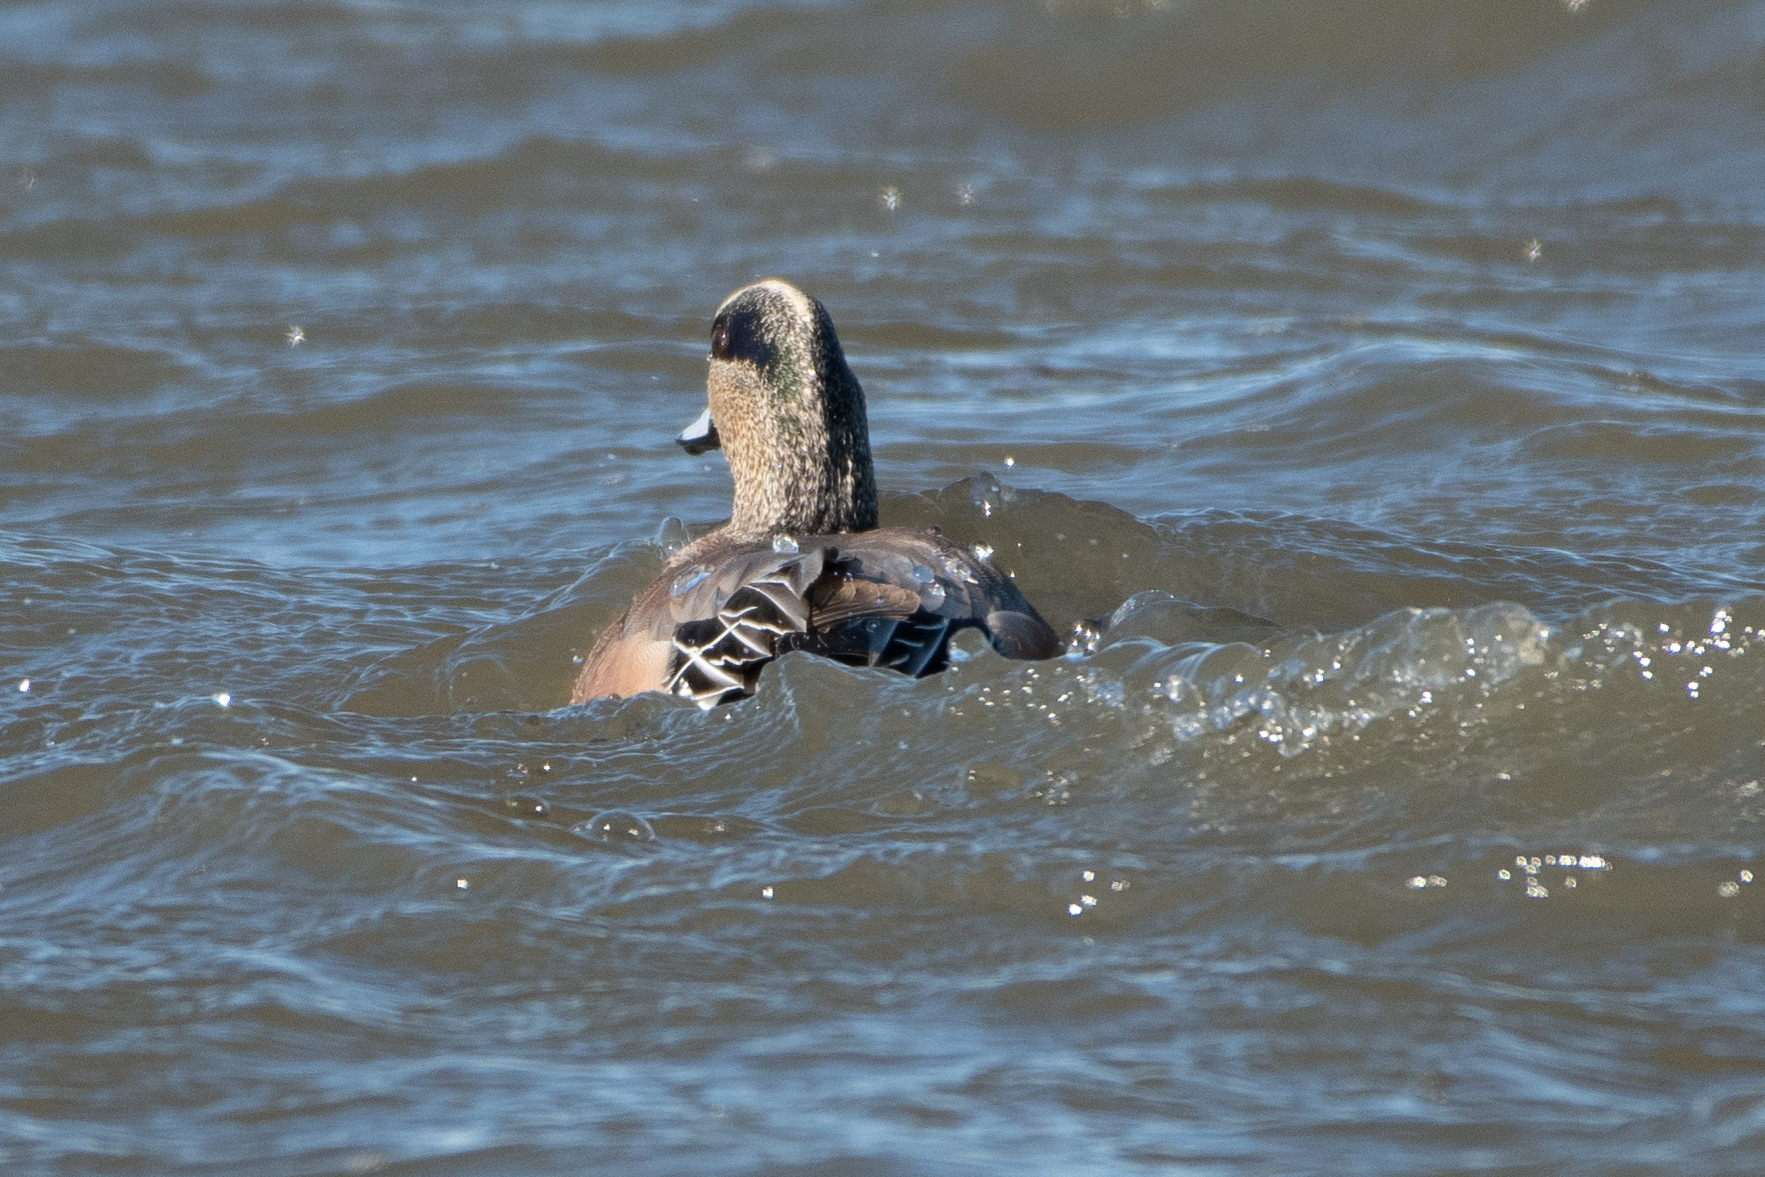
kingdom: Animalia
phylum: Chordata
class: Aves
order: Anseriformes
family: Anatidae
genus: Mareca
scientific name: Mareca americana
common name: American wigeon
